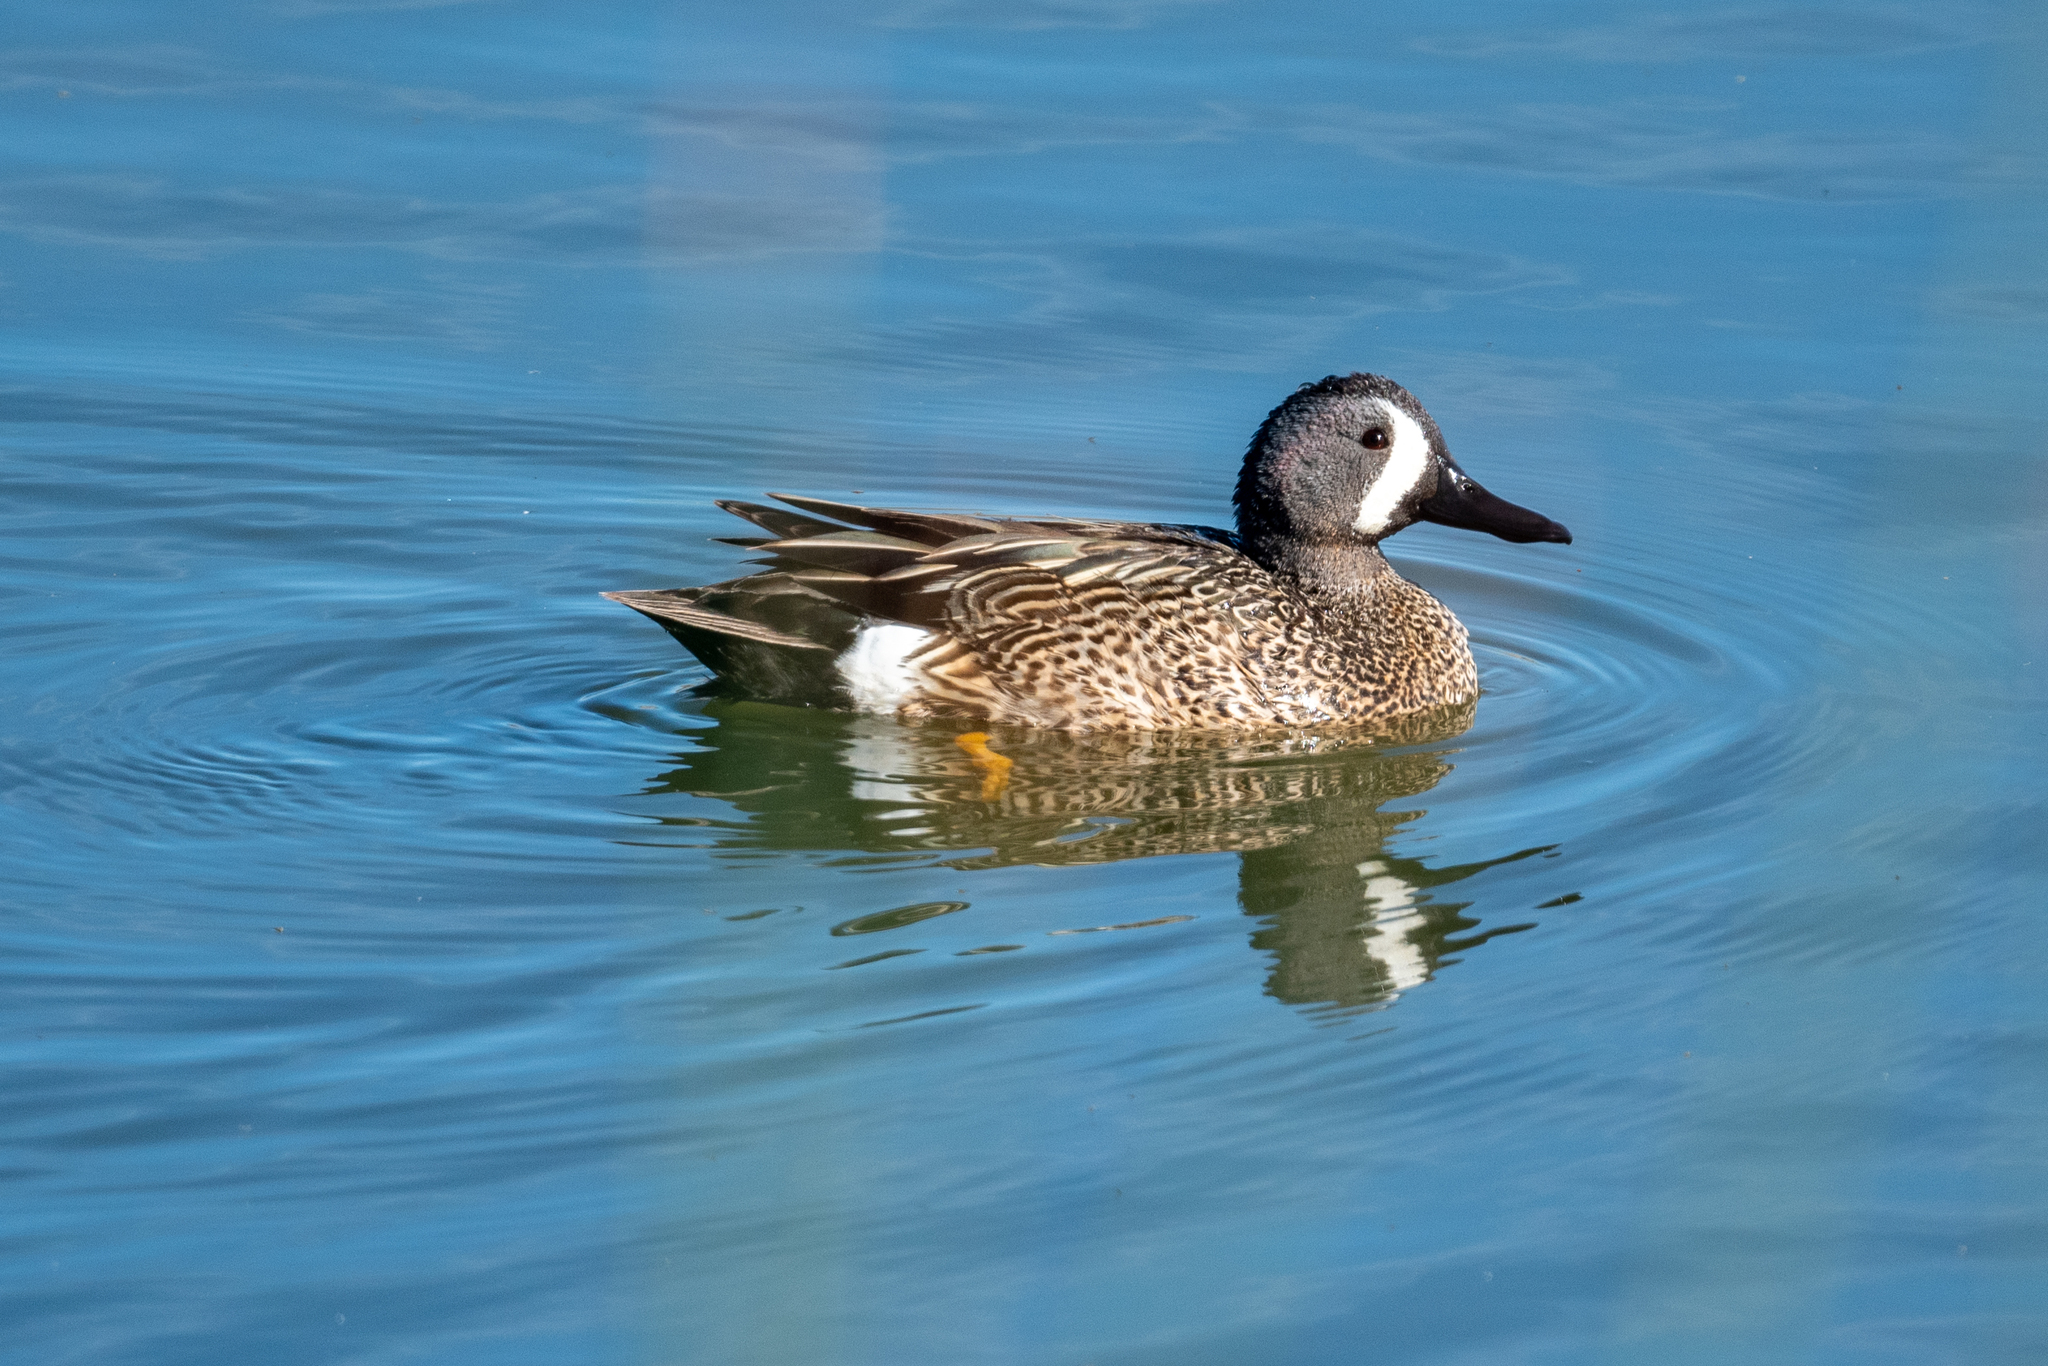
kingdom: Animalia
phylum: Chordata
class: Aves
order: Anseriformes
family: Anatidae
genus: Spatula
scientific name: Spatula discors
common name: Blue-winged teal
